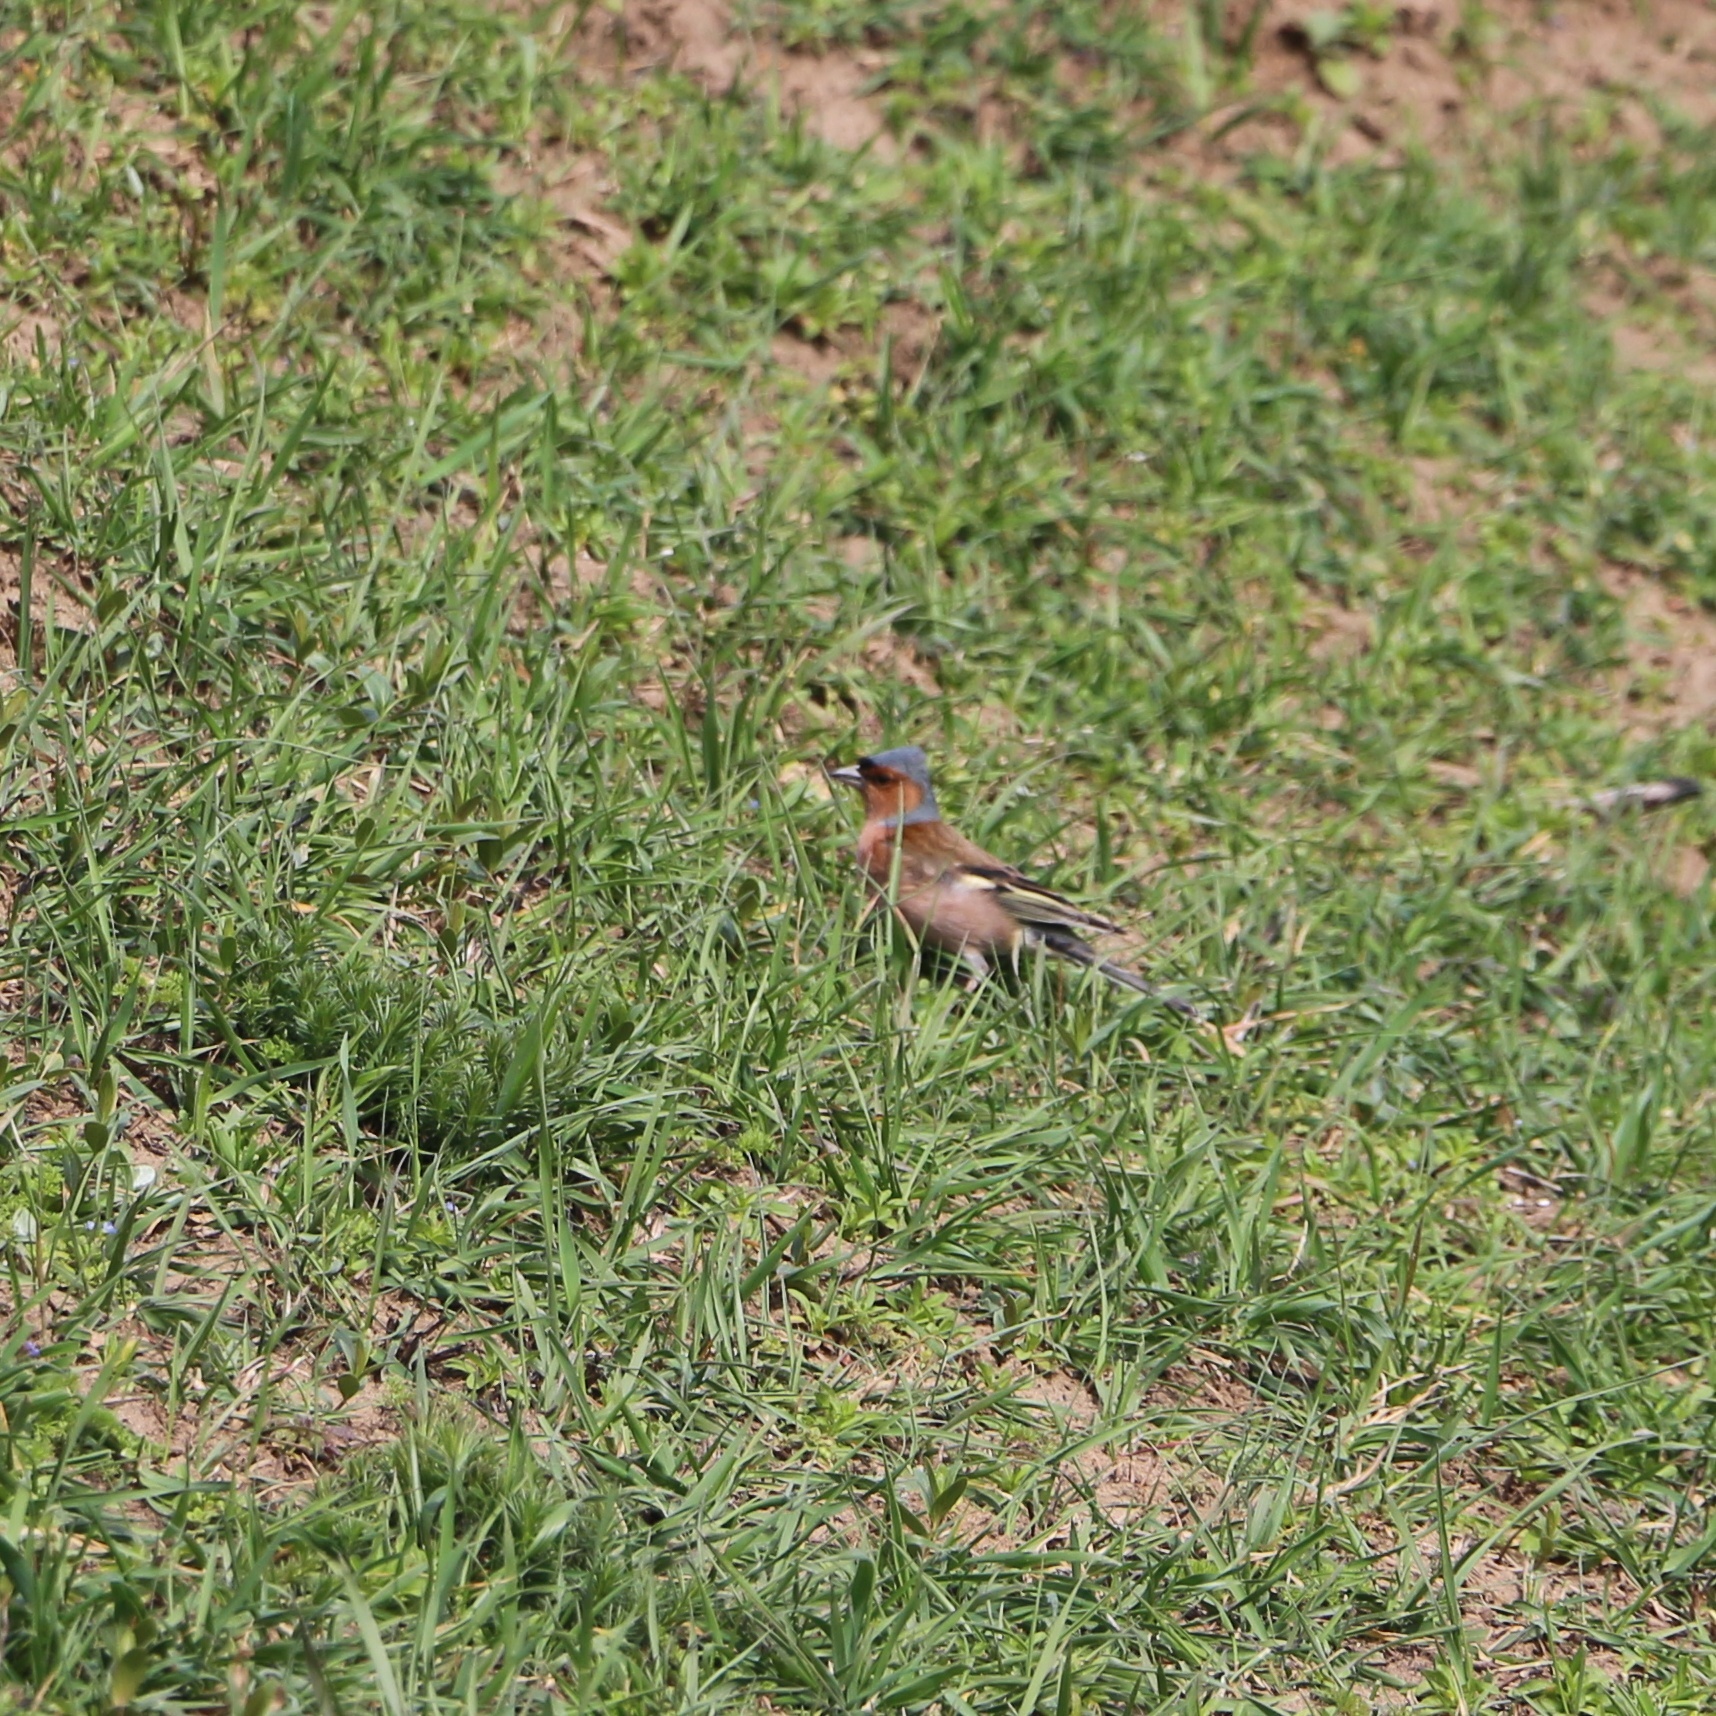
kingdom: Animalia
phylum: Chordata
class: Aves
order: Passeriformes
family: Fringillidae
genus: Fringilla
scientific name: Fringilla coelebs
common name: Common chaffinch
